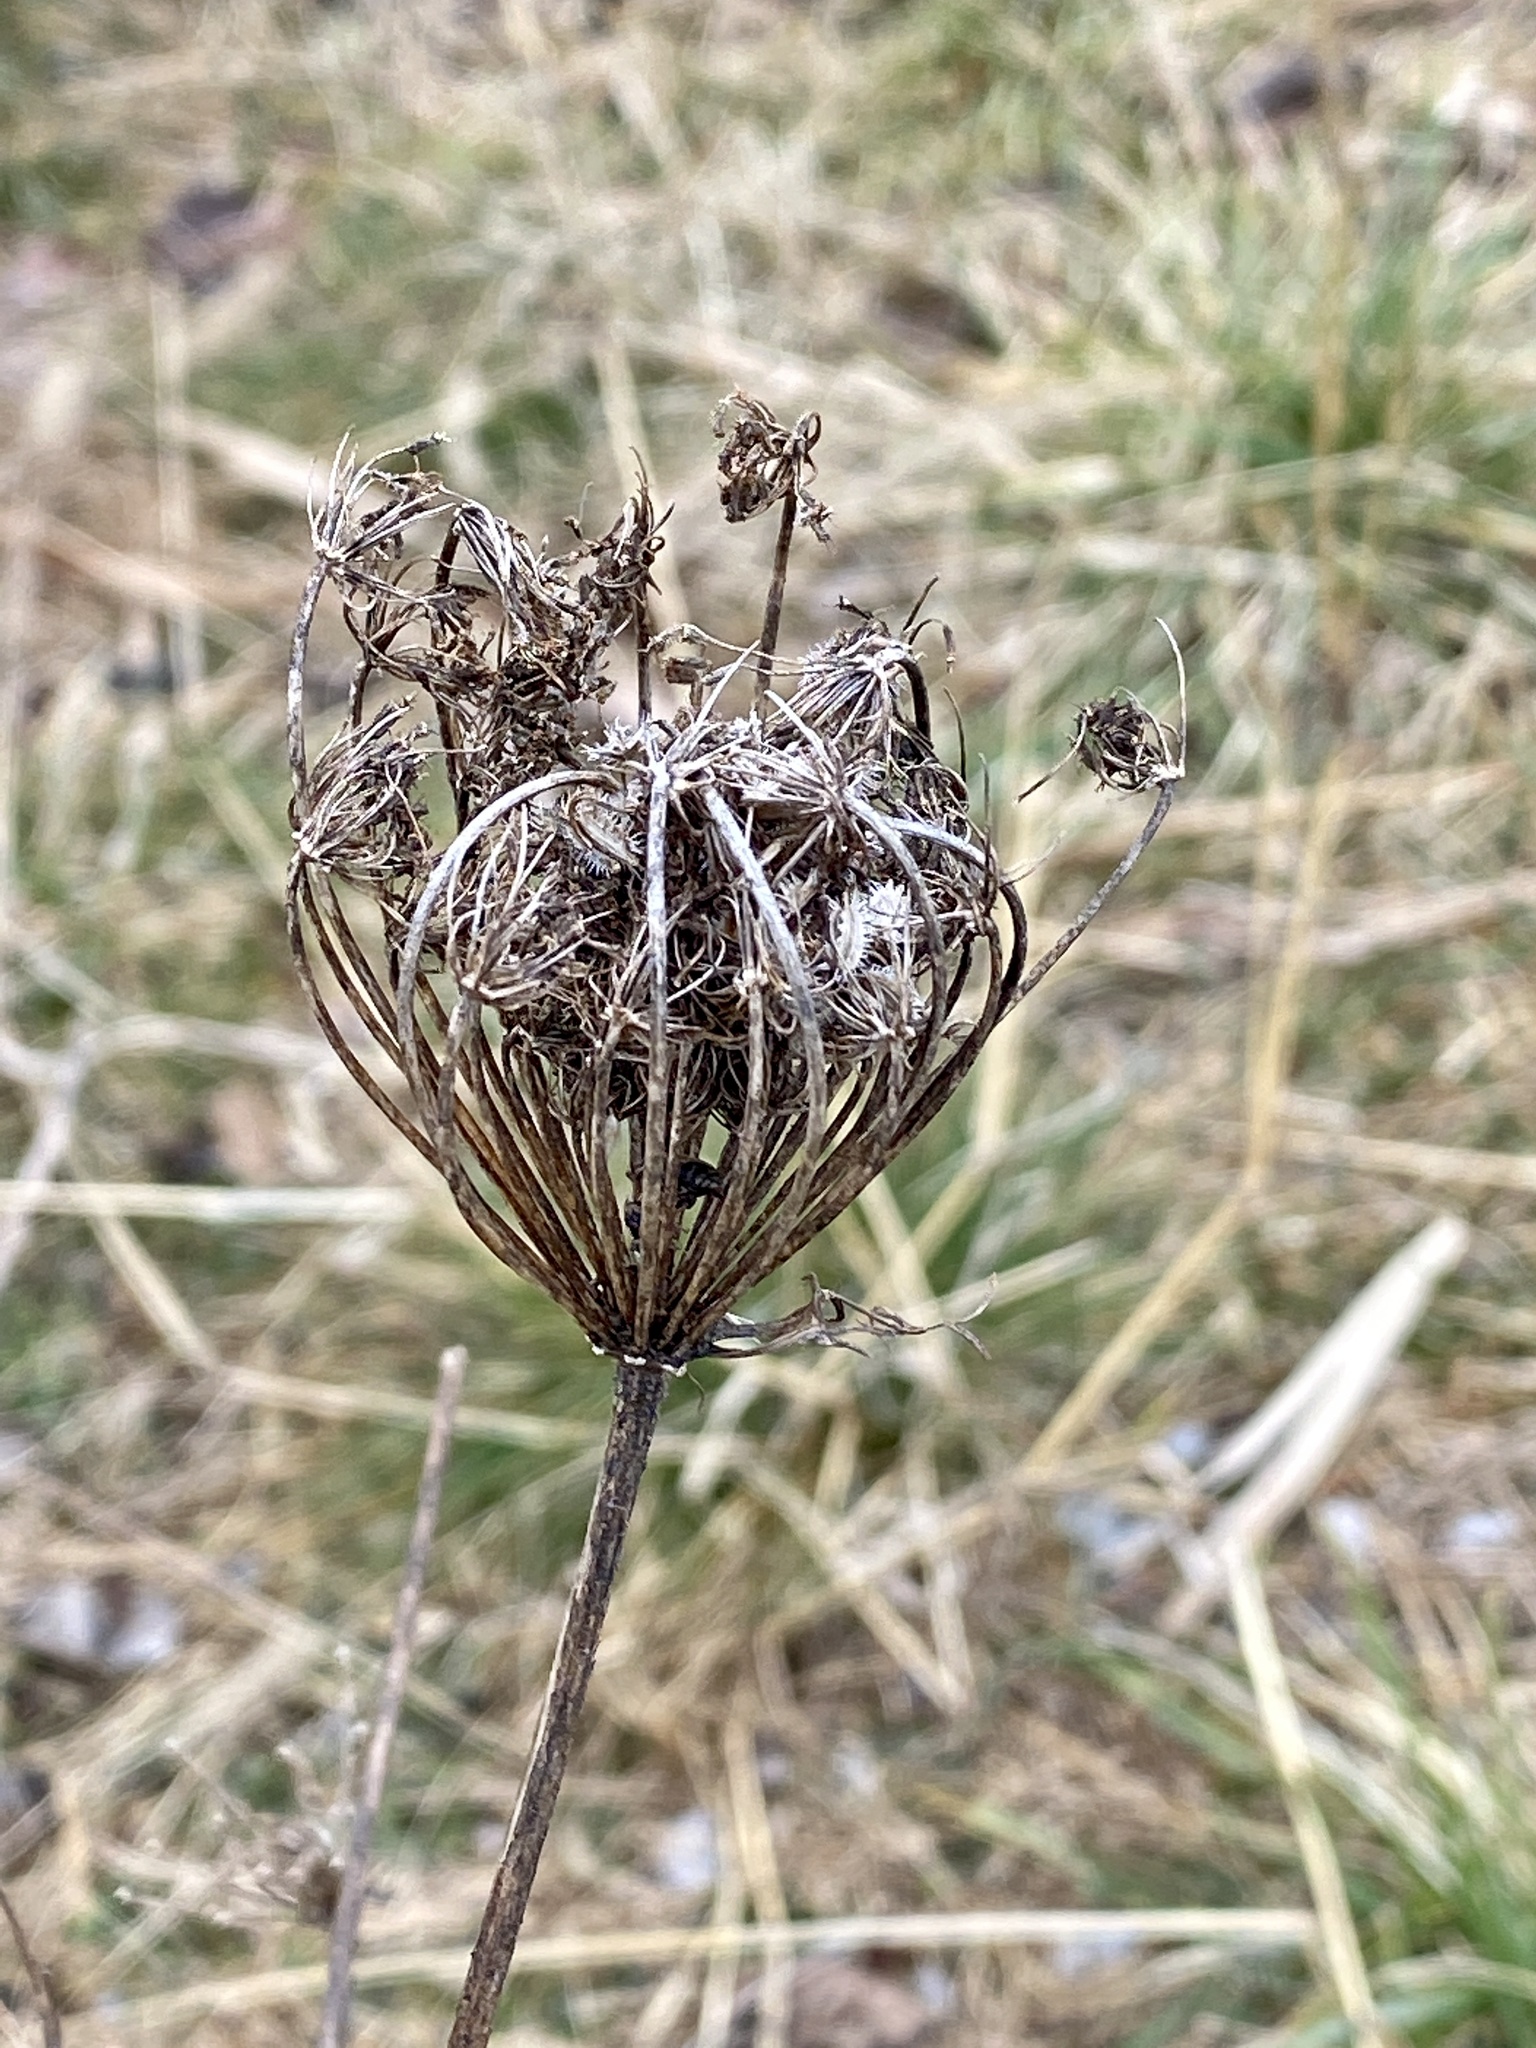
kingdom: Plantae
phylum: Tracheophyta
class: Magnoliopsida
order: Apiales
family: Apiaceae
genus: Daucus
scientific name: Daucus carota
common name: Wild carrot
